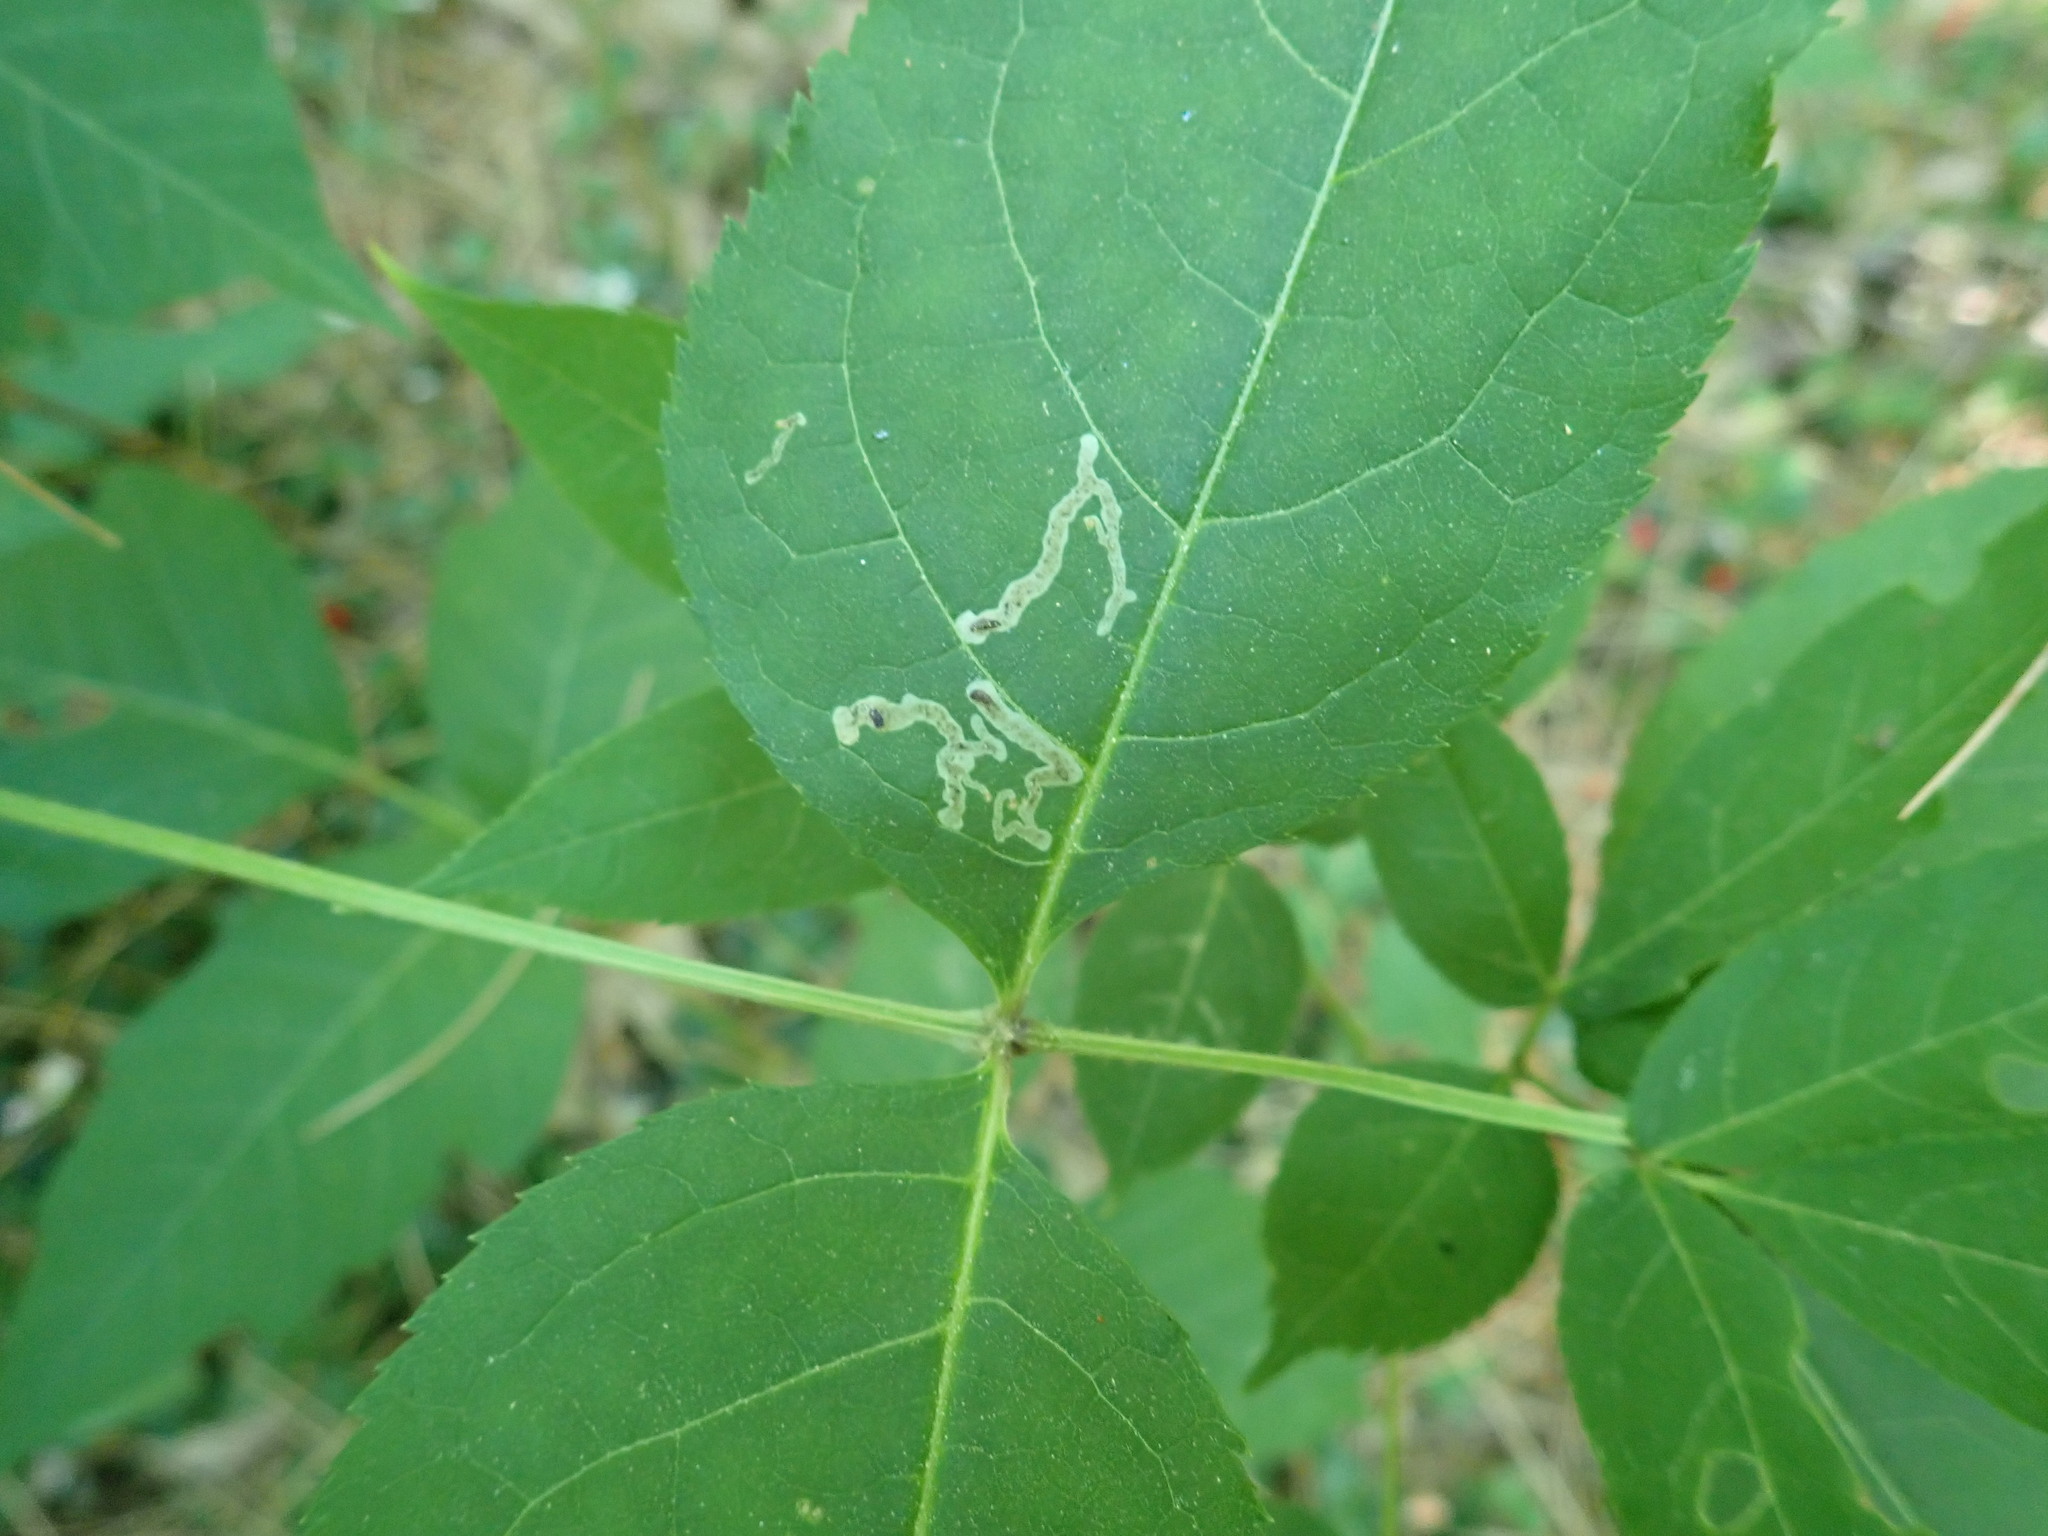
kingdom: Animalia
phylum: Arthropoda
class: Insecta
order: Diptera
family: Agromyzidae
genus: Phytomyza
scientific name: Phytomyza aralivora
